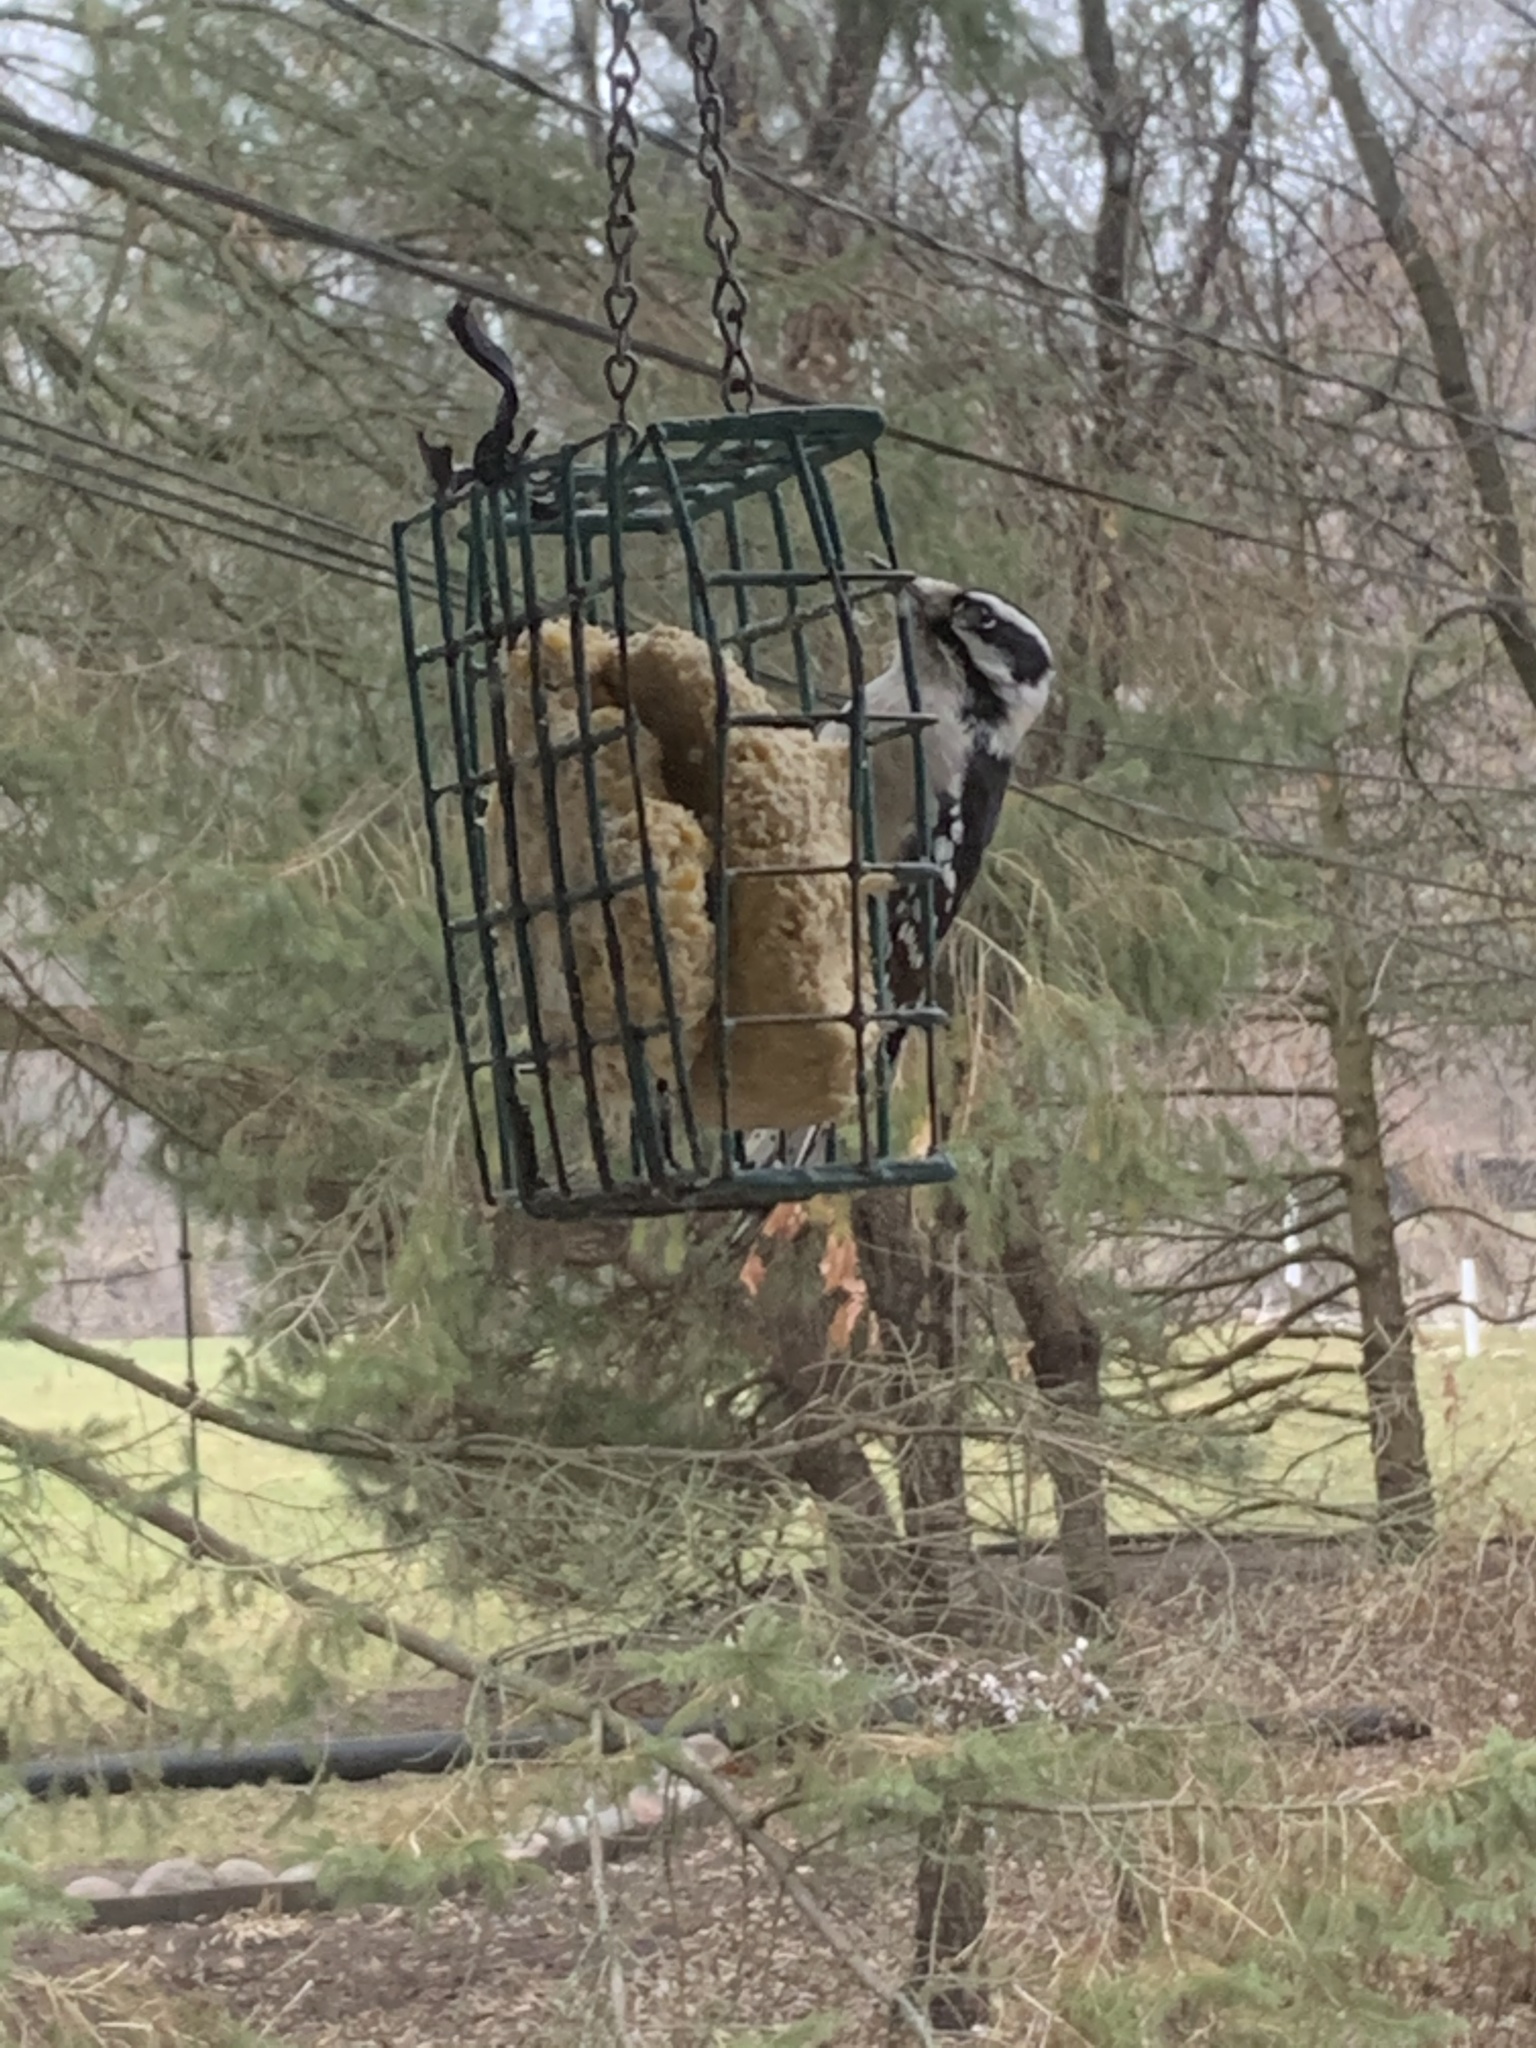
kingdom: Animalia
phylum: Chordata
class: Aves
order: Piciformes
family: Picidae
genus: Dryobates
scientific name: Dryobates pubescens
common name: Downy woodpecker
